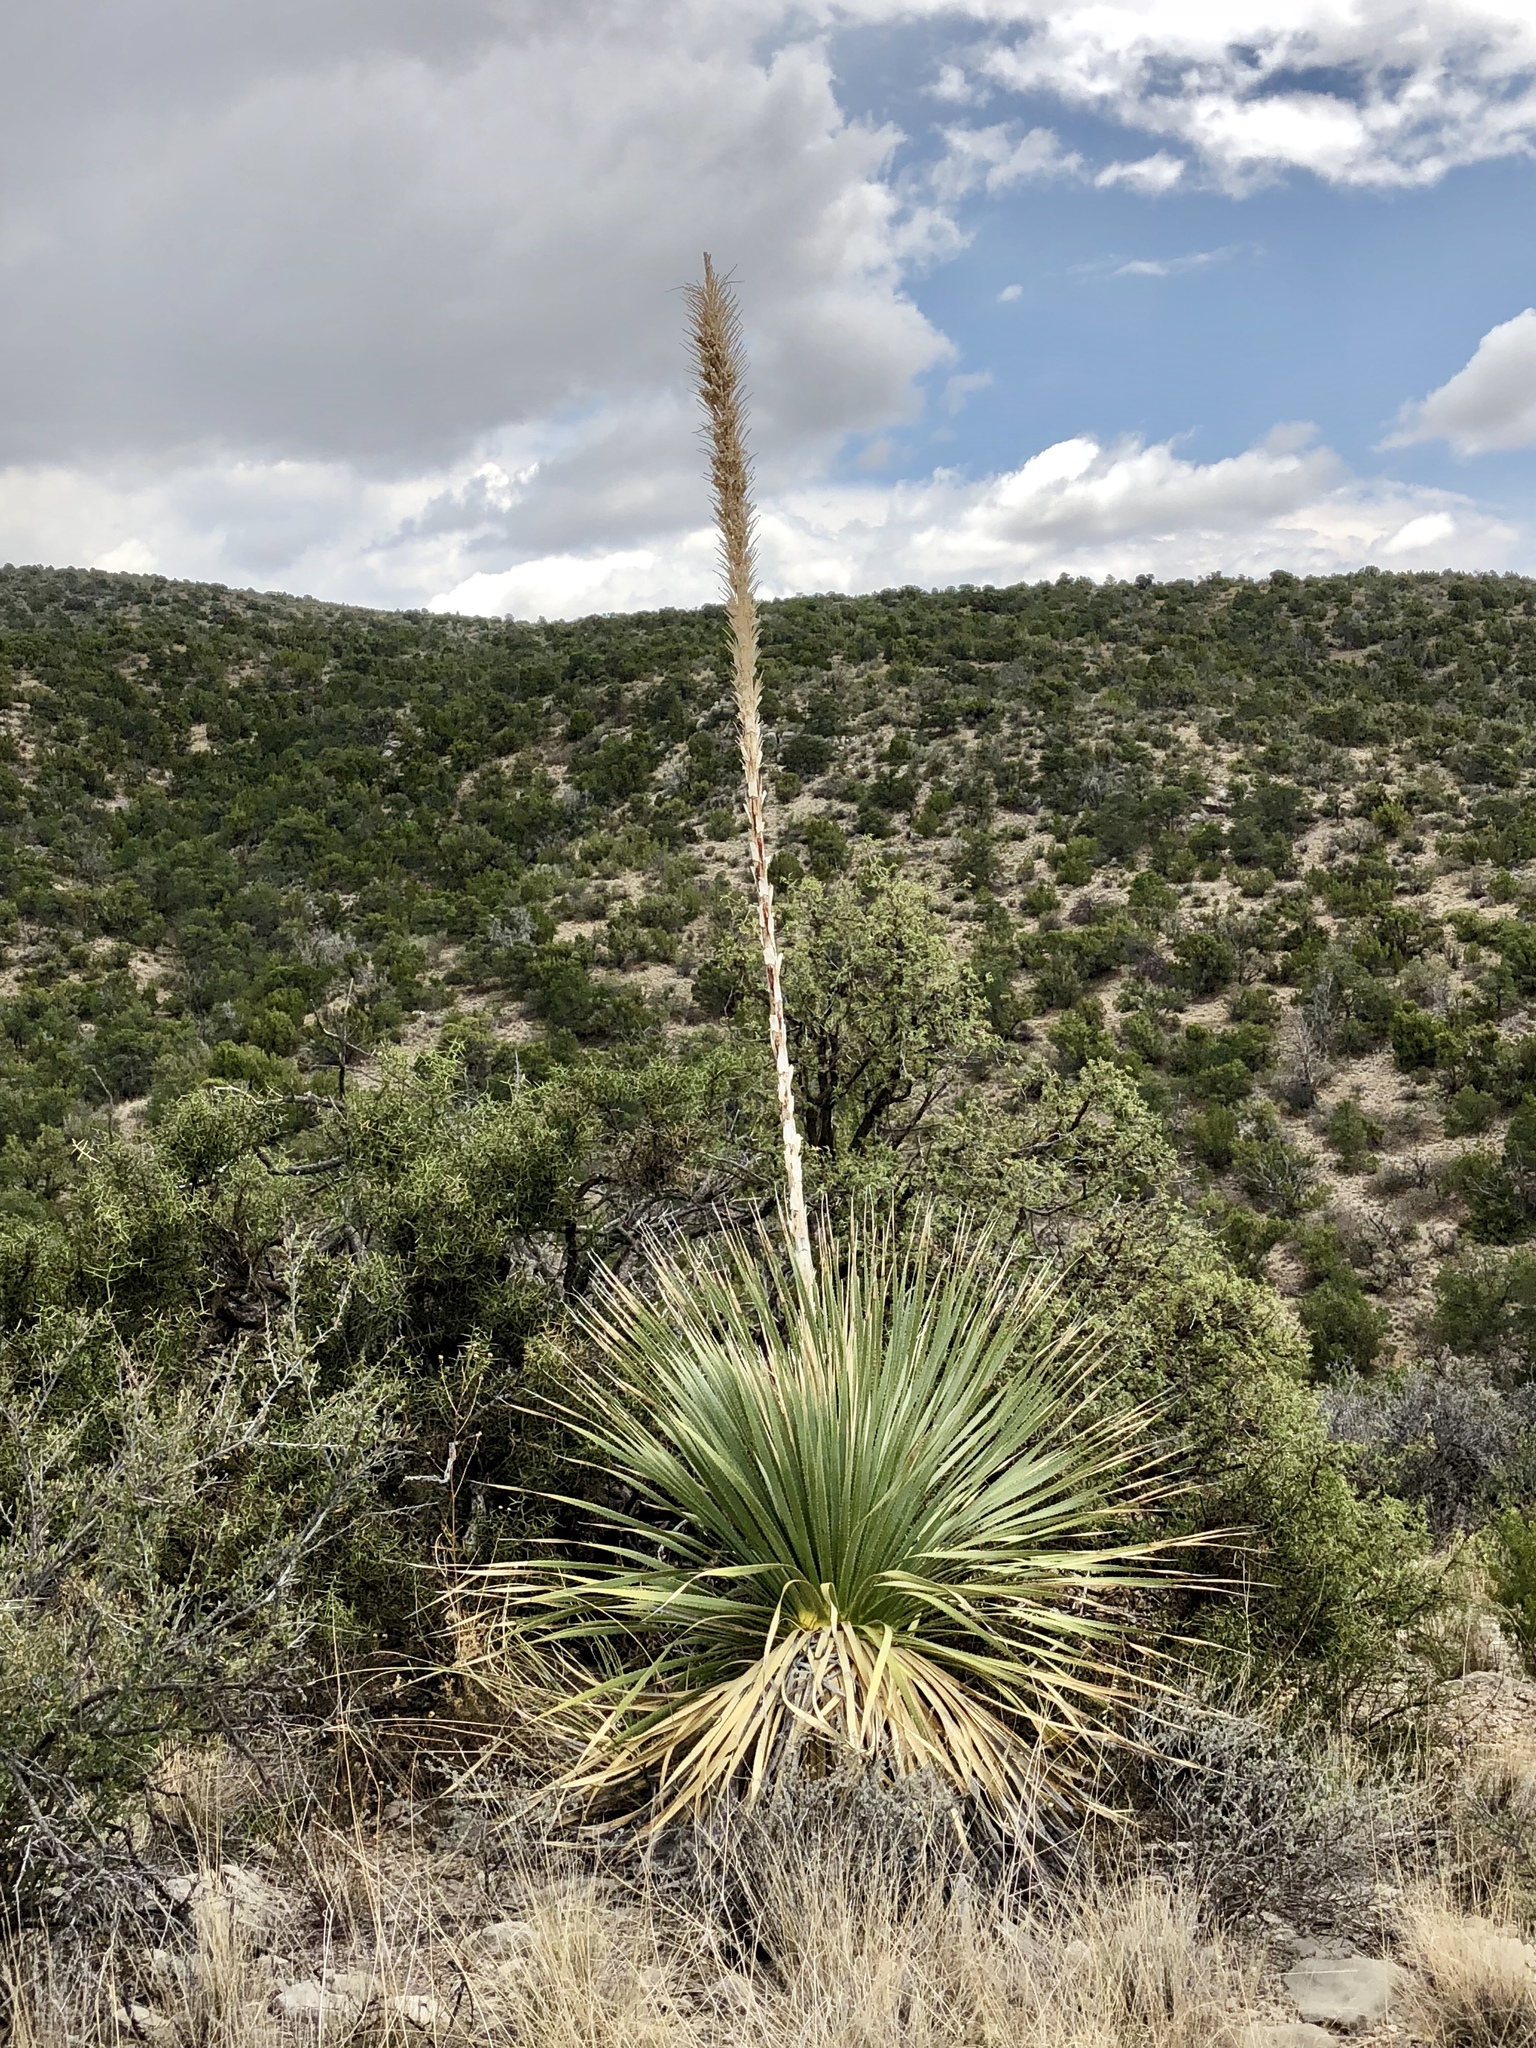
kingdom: Plantae
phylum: Tracheophyta
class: Liliopsida
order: Asparagales
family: Asparagaceae
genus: Dasylirion
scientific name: Dasylirion wheeleri
